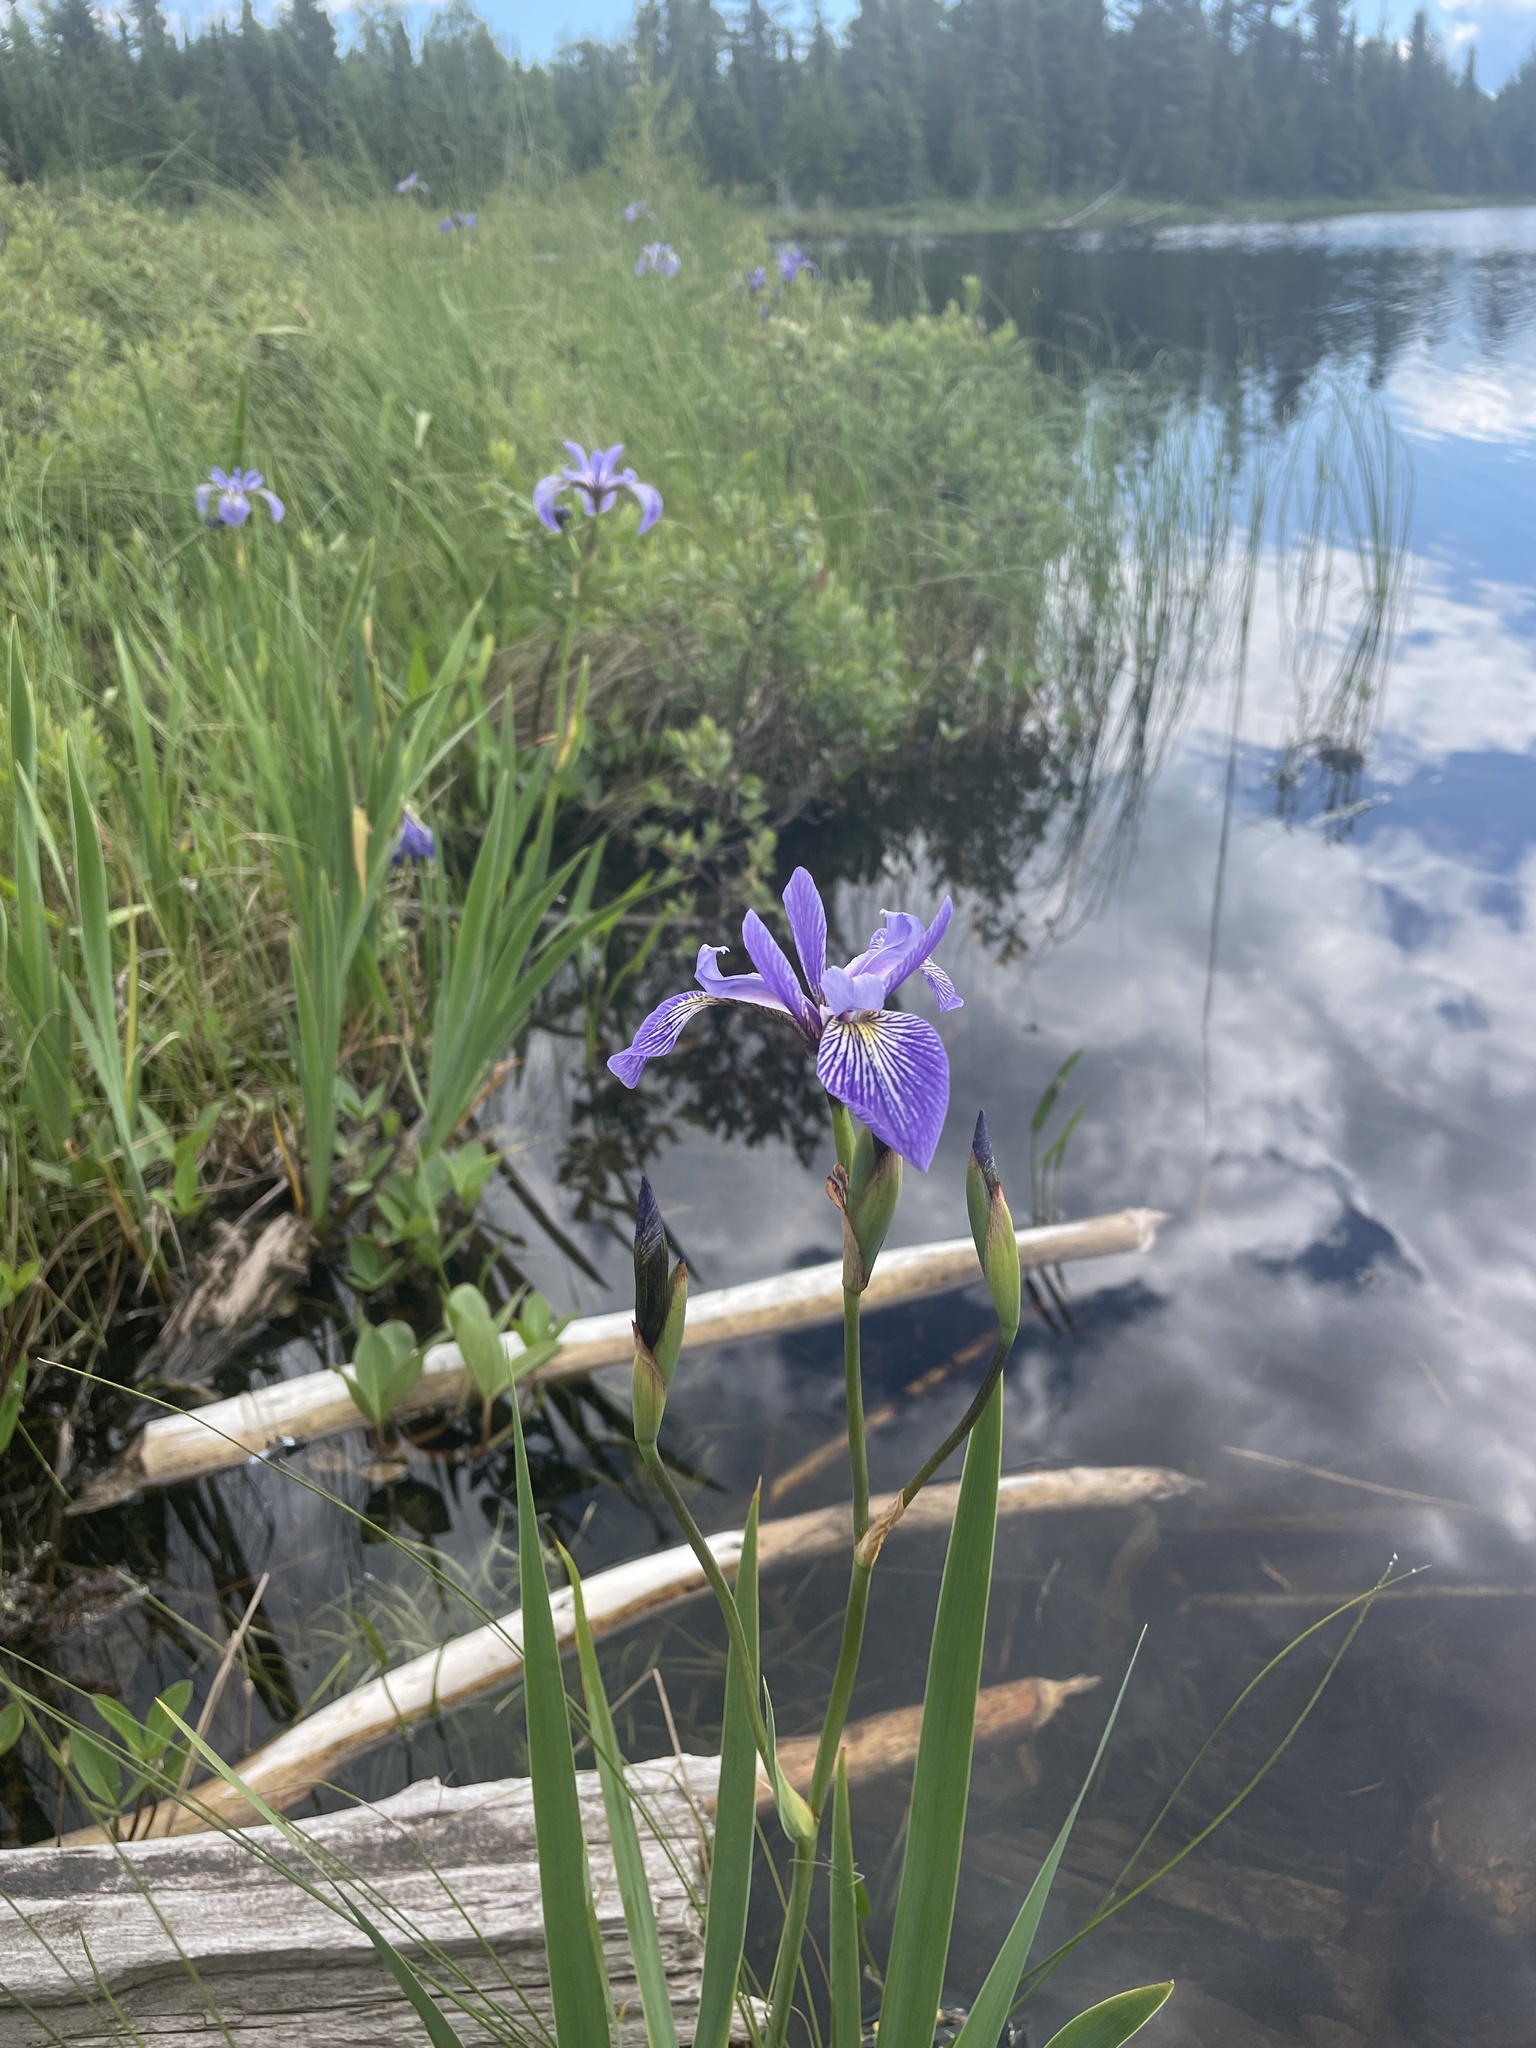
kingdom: Plantae
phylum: Tracheophyta
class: Liliopsida
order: Asparagales
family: Iridaceae
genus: Iris
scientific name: Iris versicolor
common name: Purple iris
